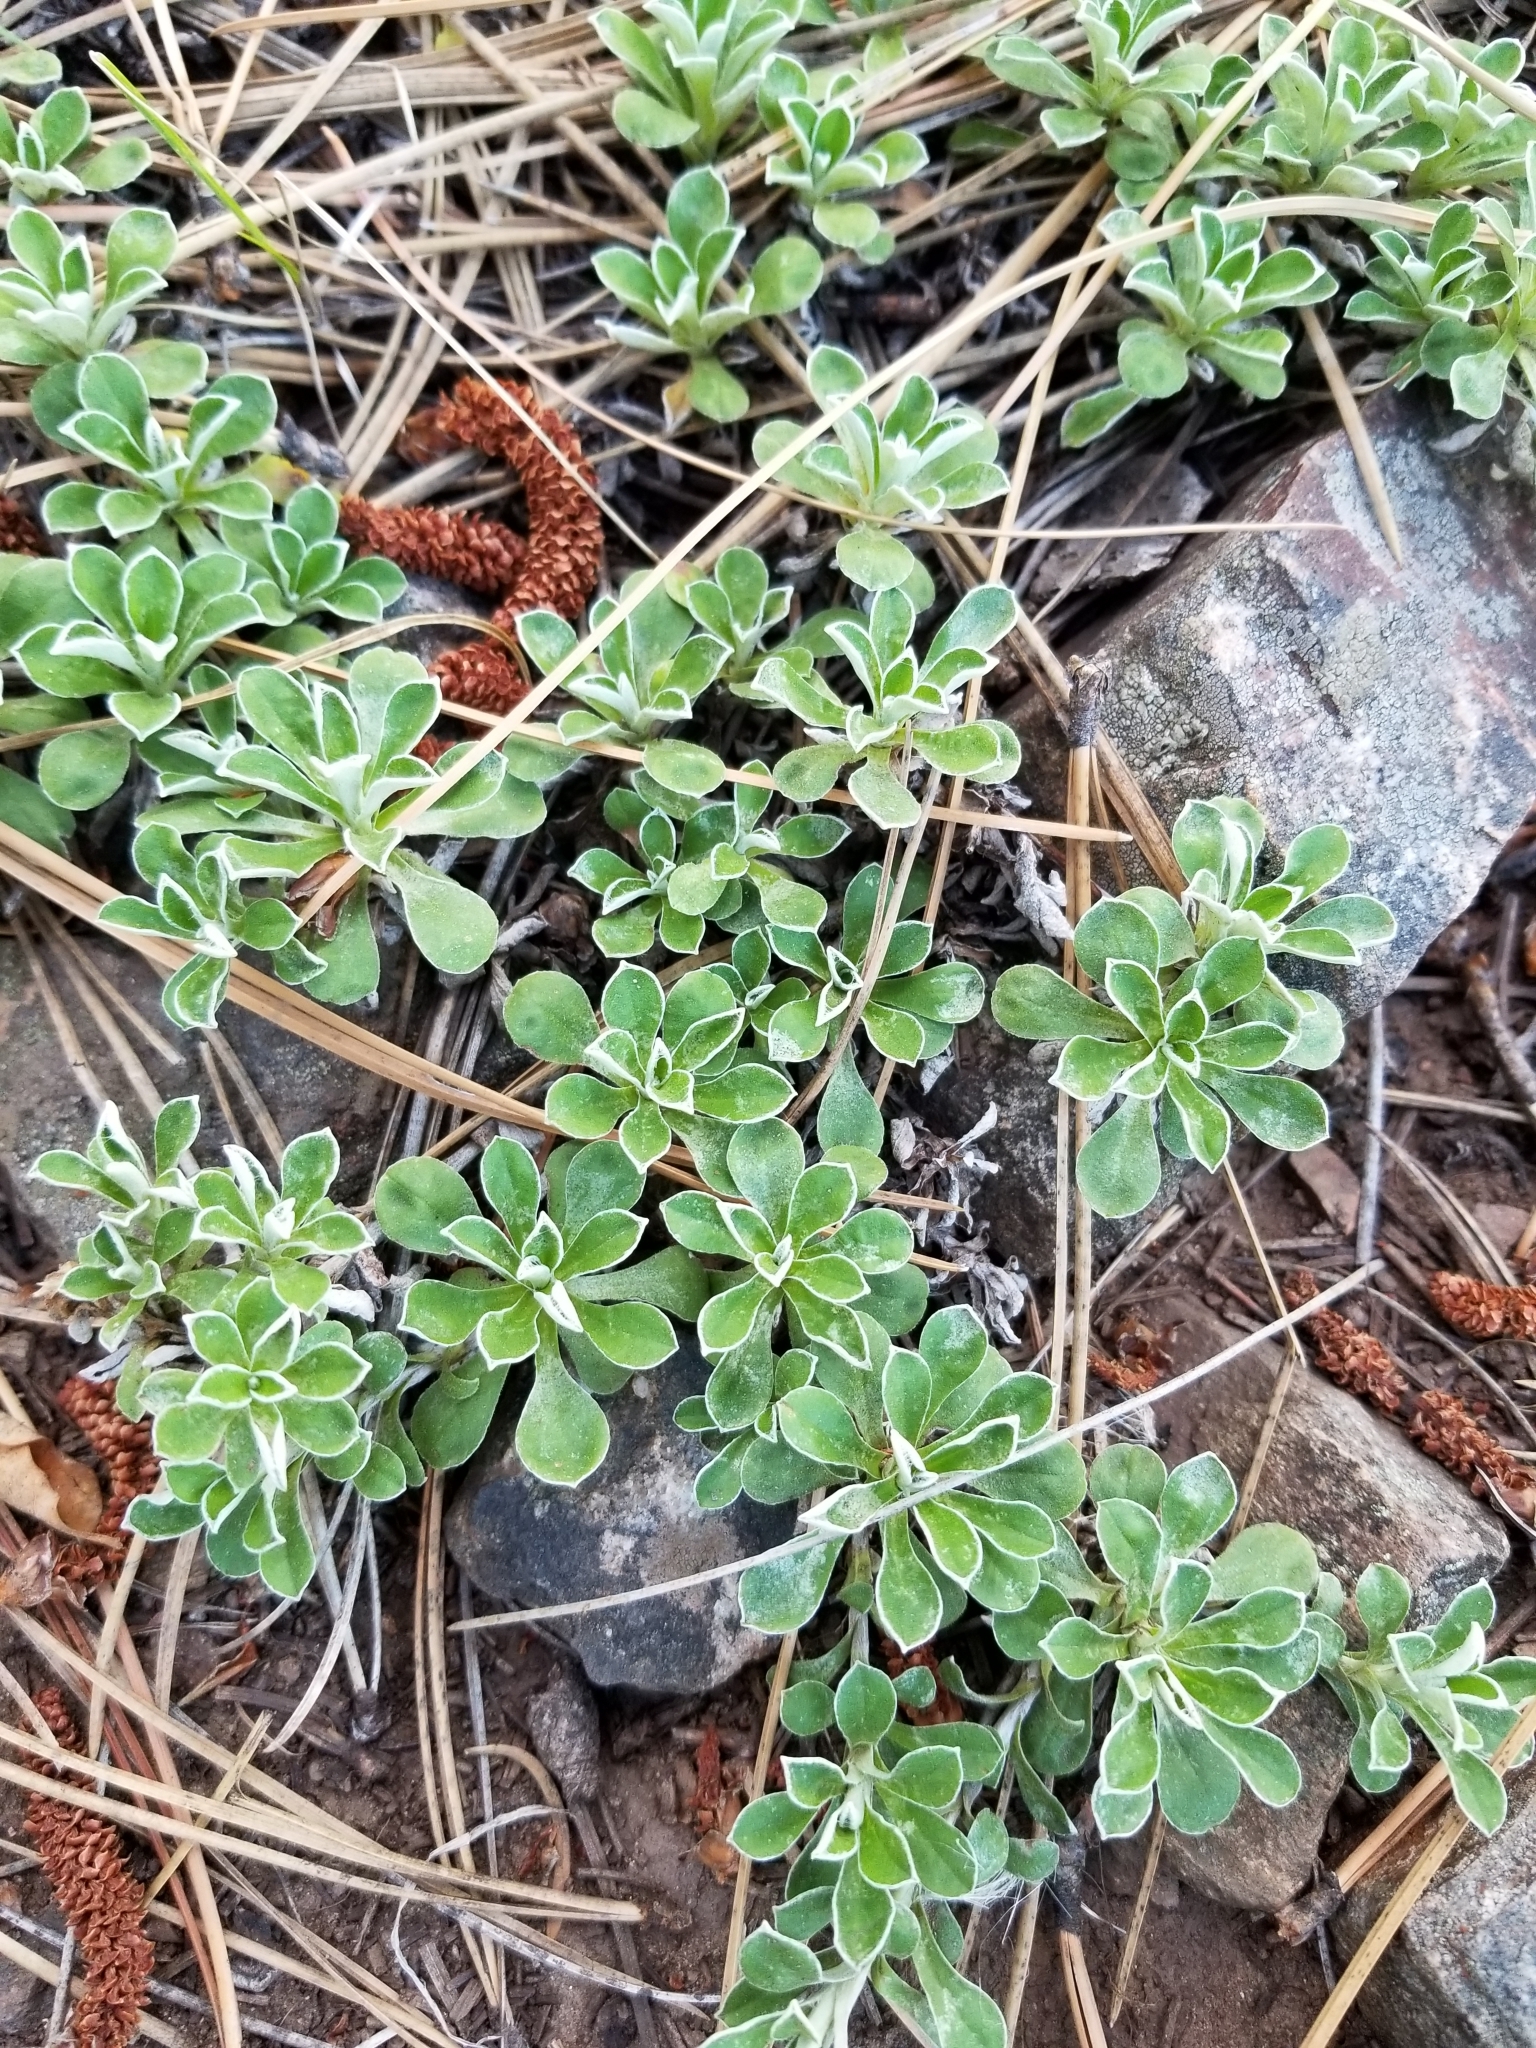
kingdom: Plantae
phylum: Tracheophyta
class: Magnoliopsida
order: Asterales
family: Asteraceae
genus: Antennaria
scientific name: Antennaria marginata
